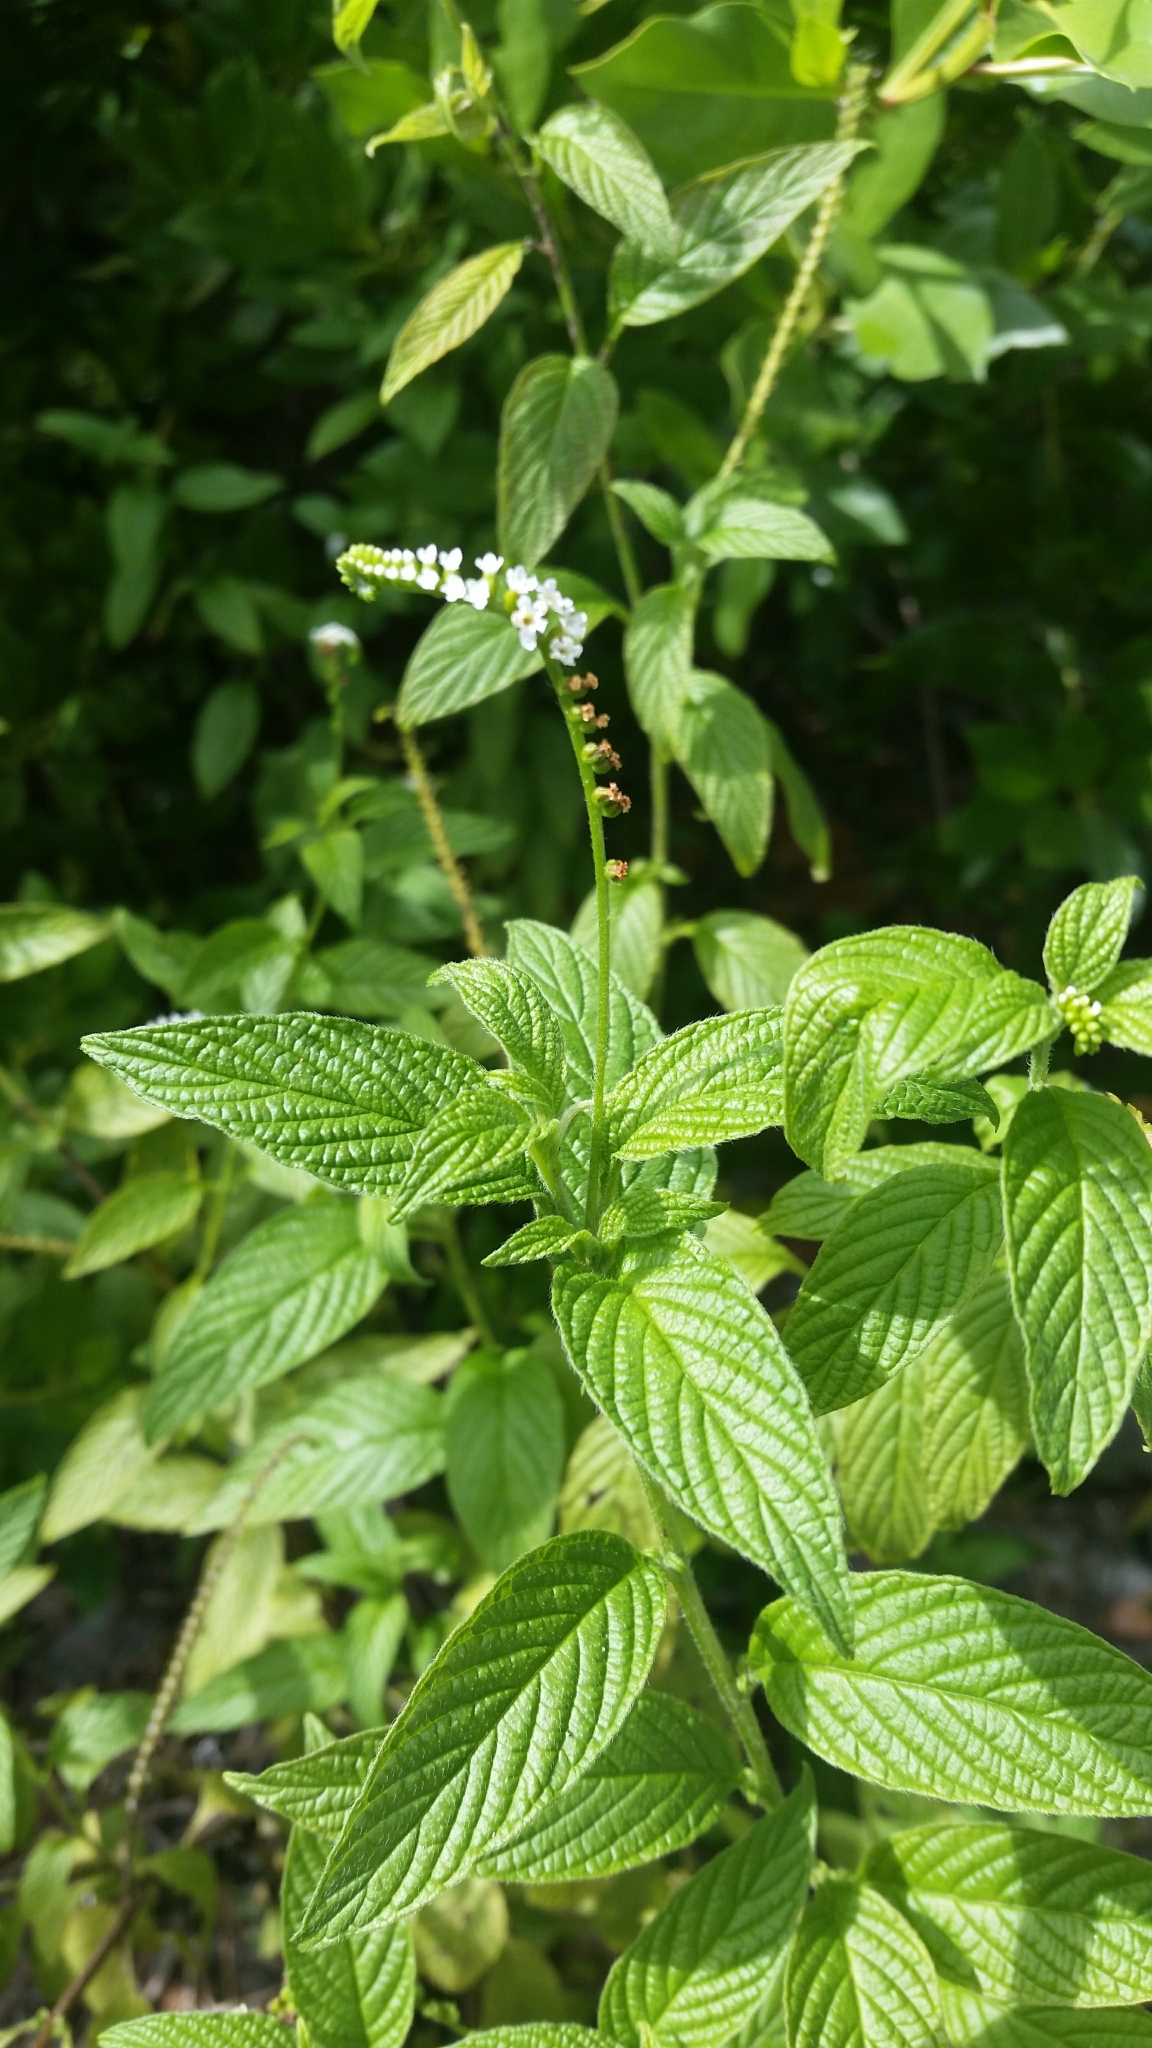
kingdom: Plantae
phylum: Tracheophyta
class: Magnoliopsida
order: Boraginales
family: Heliotropiaceae
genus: Heliotropium
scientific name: Heliotropium angiospermum
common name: Eye bright
